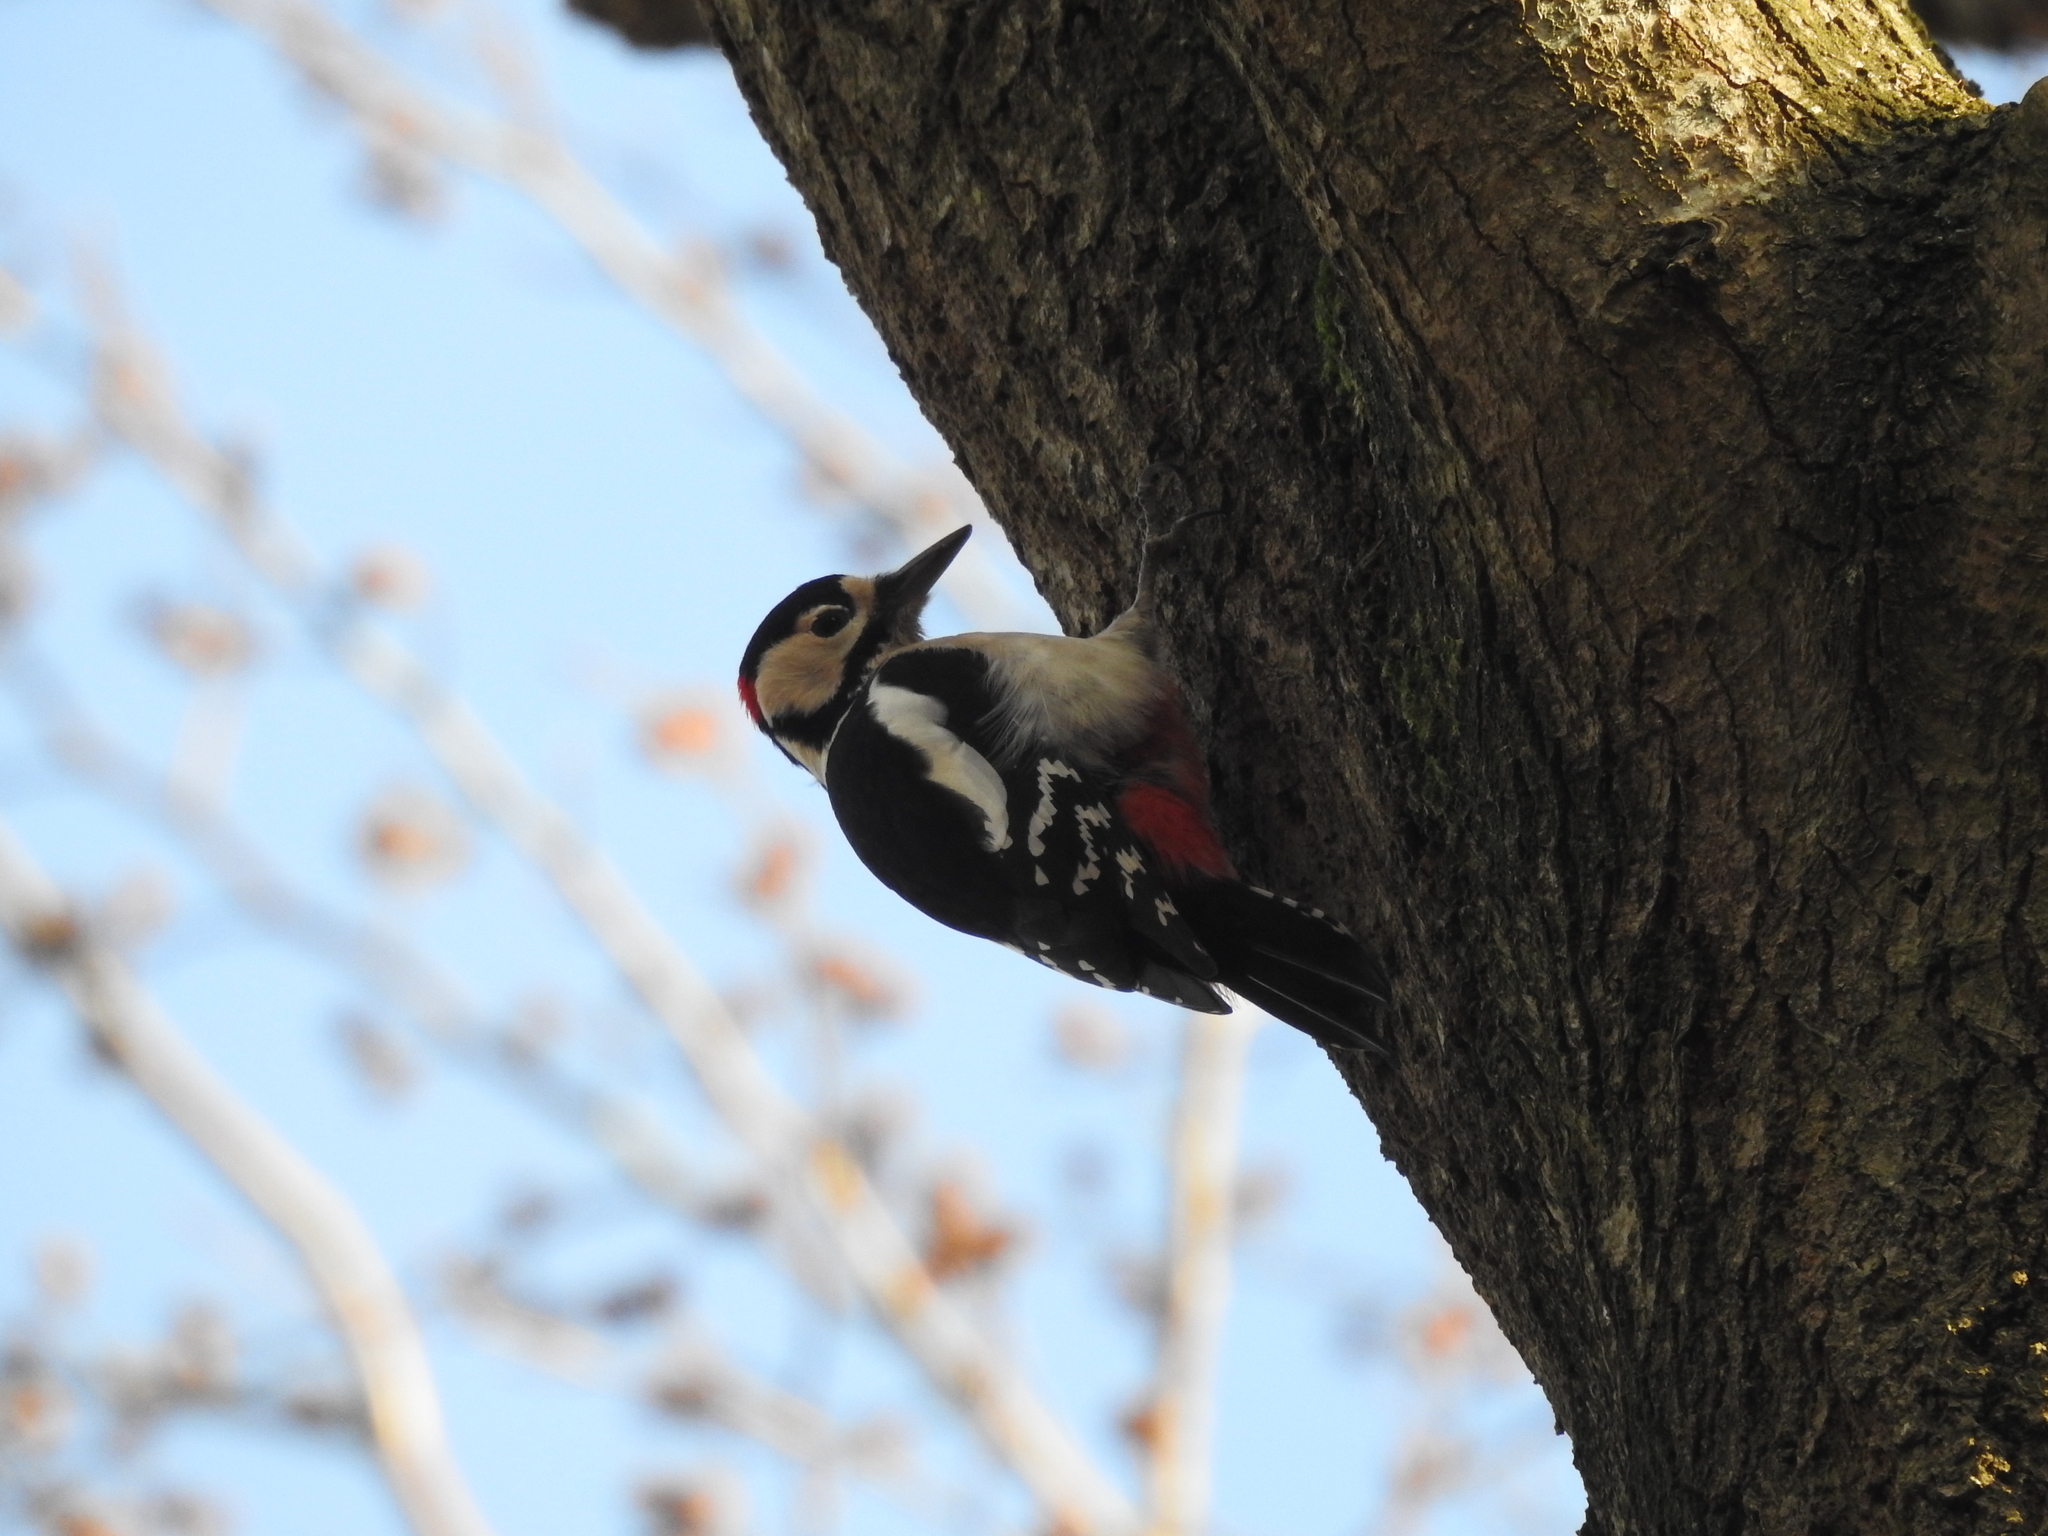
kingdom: Animalia
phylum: Chordata
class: Aves
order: Piciformes
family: Picidae
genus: Dendrocopos
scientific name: Dendrocopos major
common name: Great spotted woodpecker
